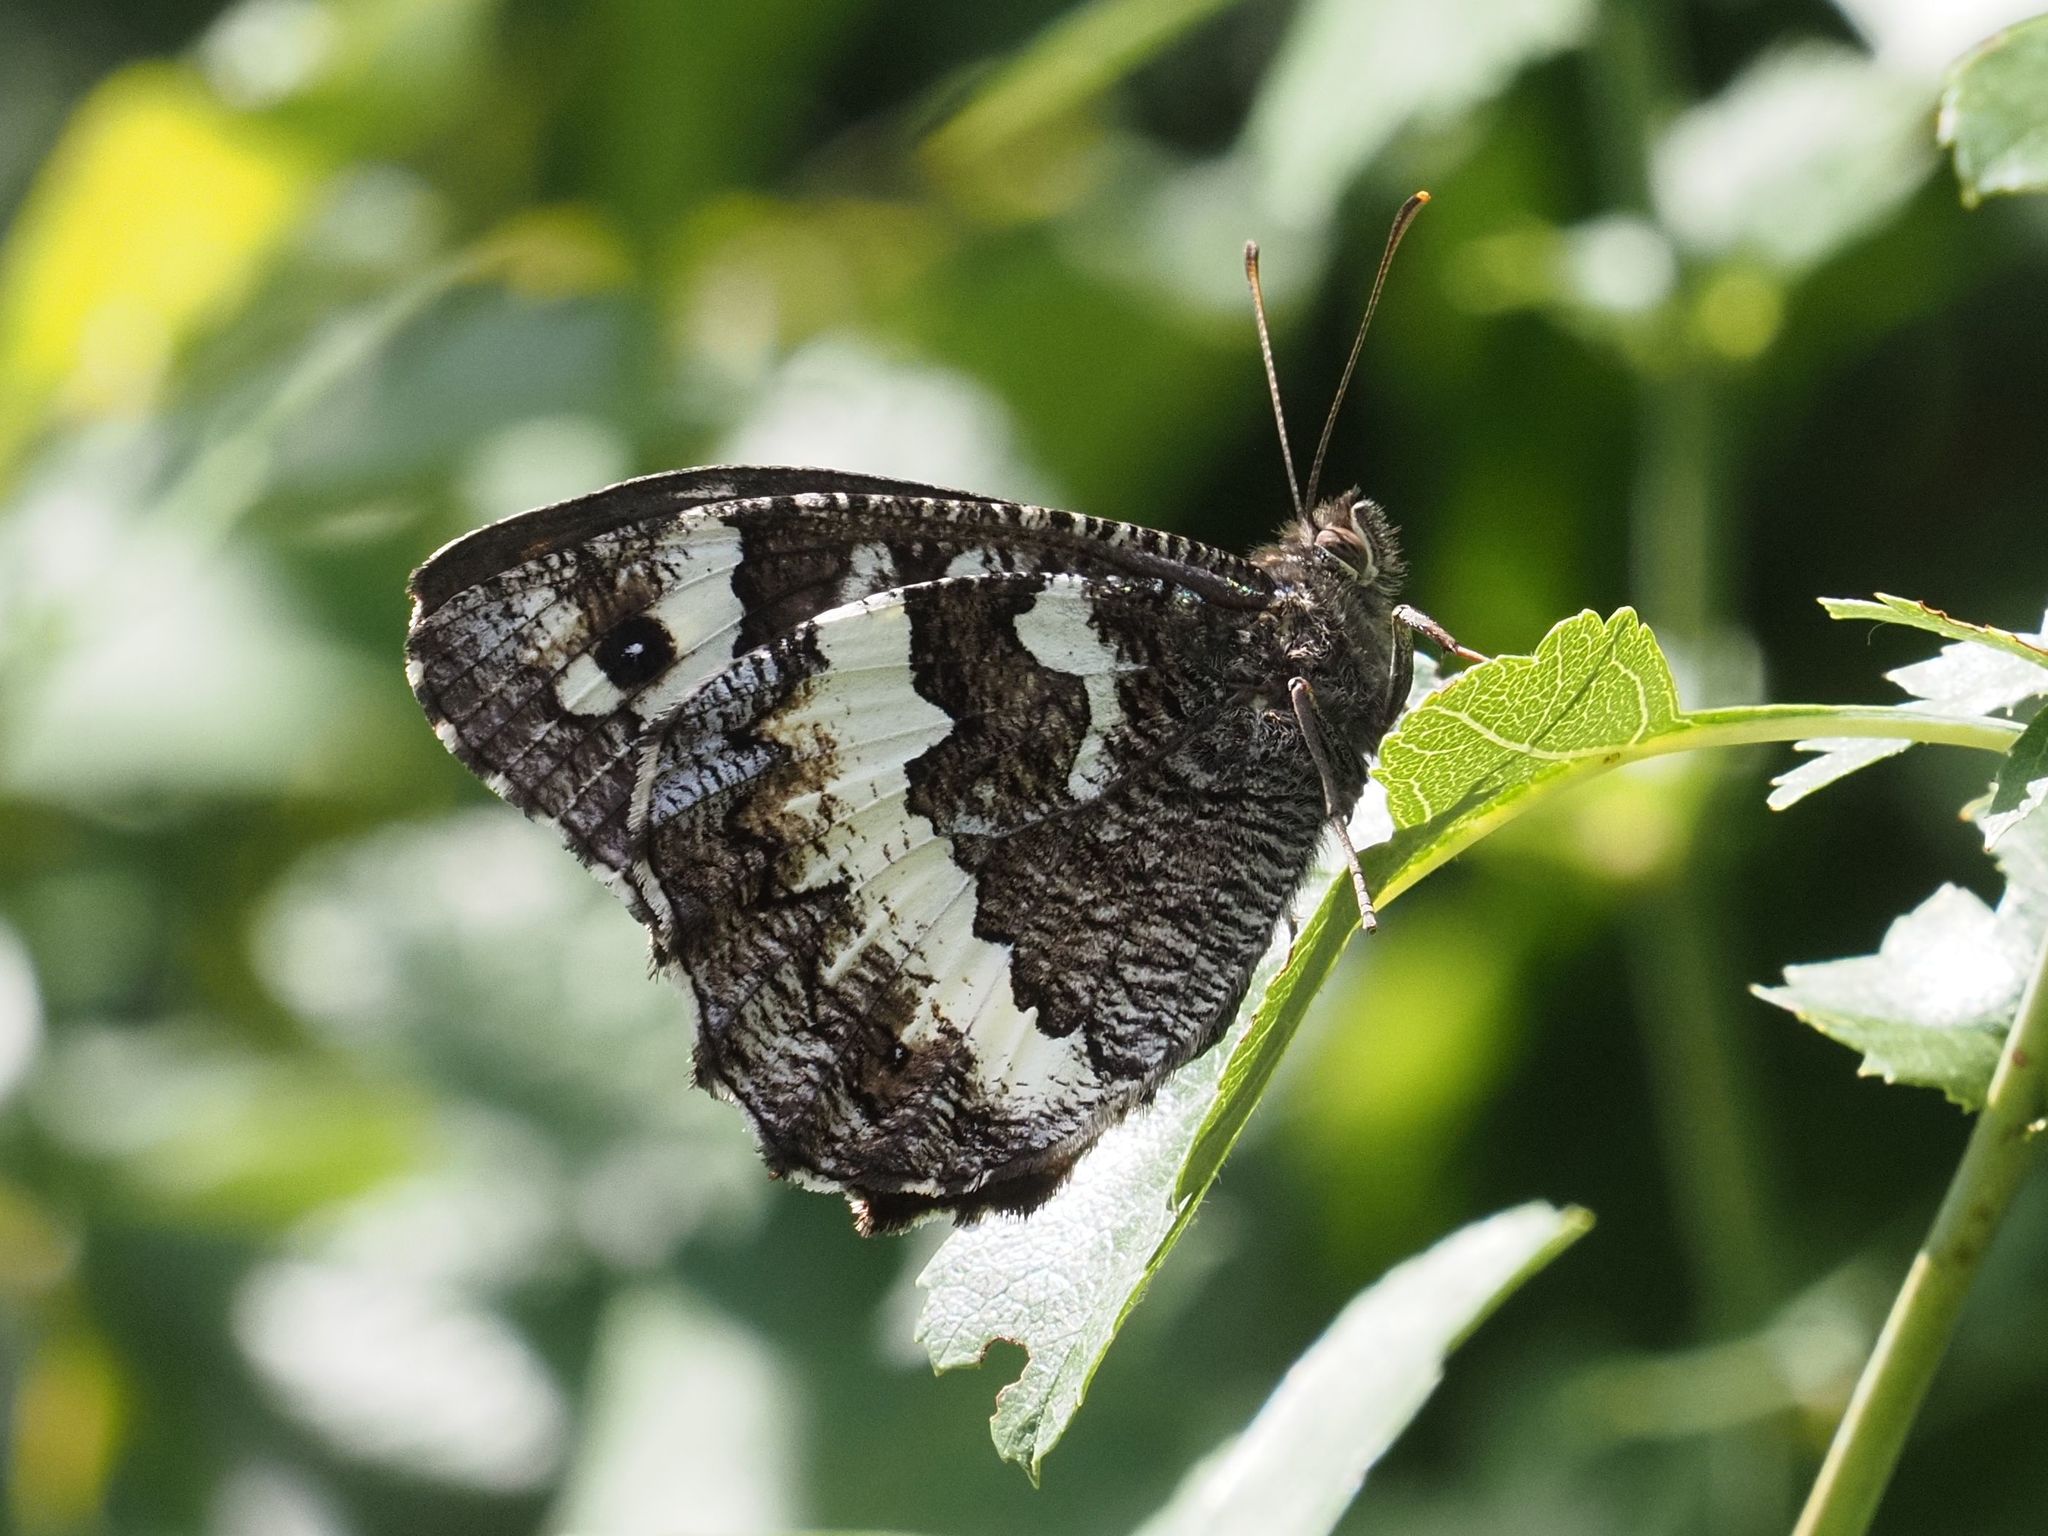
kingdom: Animalia
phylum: Arthropoda
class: Insecta
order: Lepidoptera
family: Lycaenidae
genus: Loweia
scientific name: Loweia tityrus
